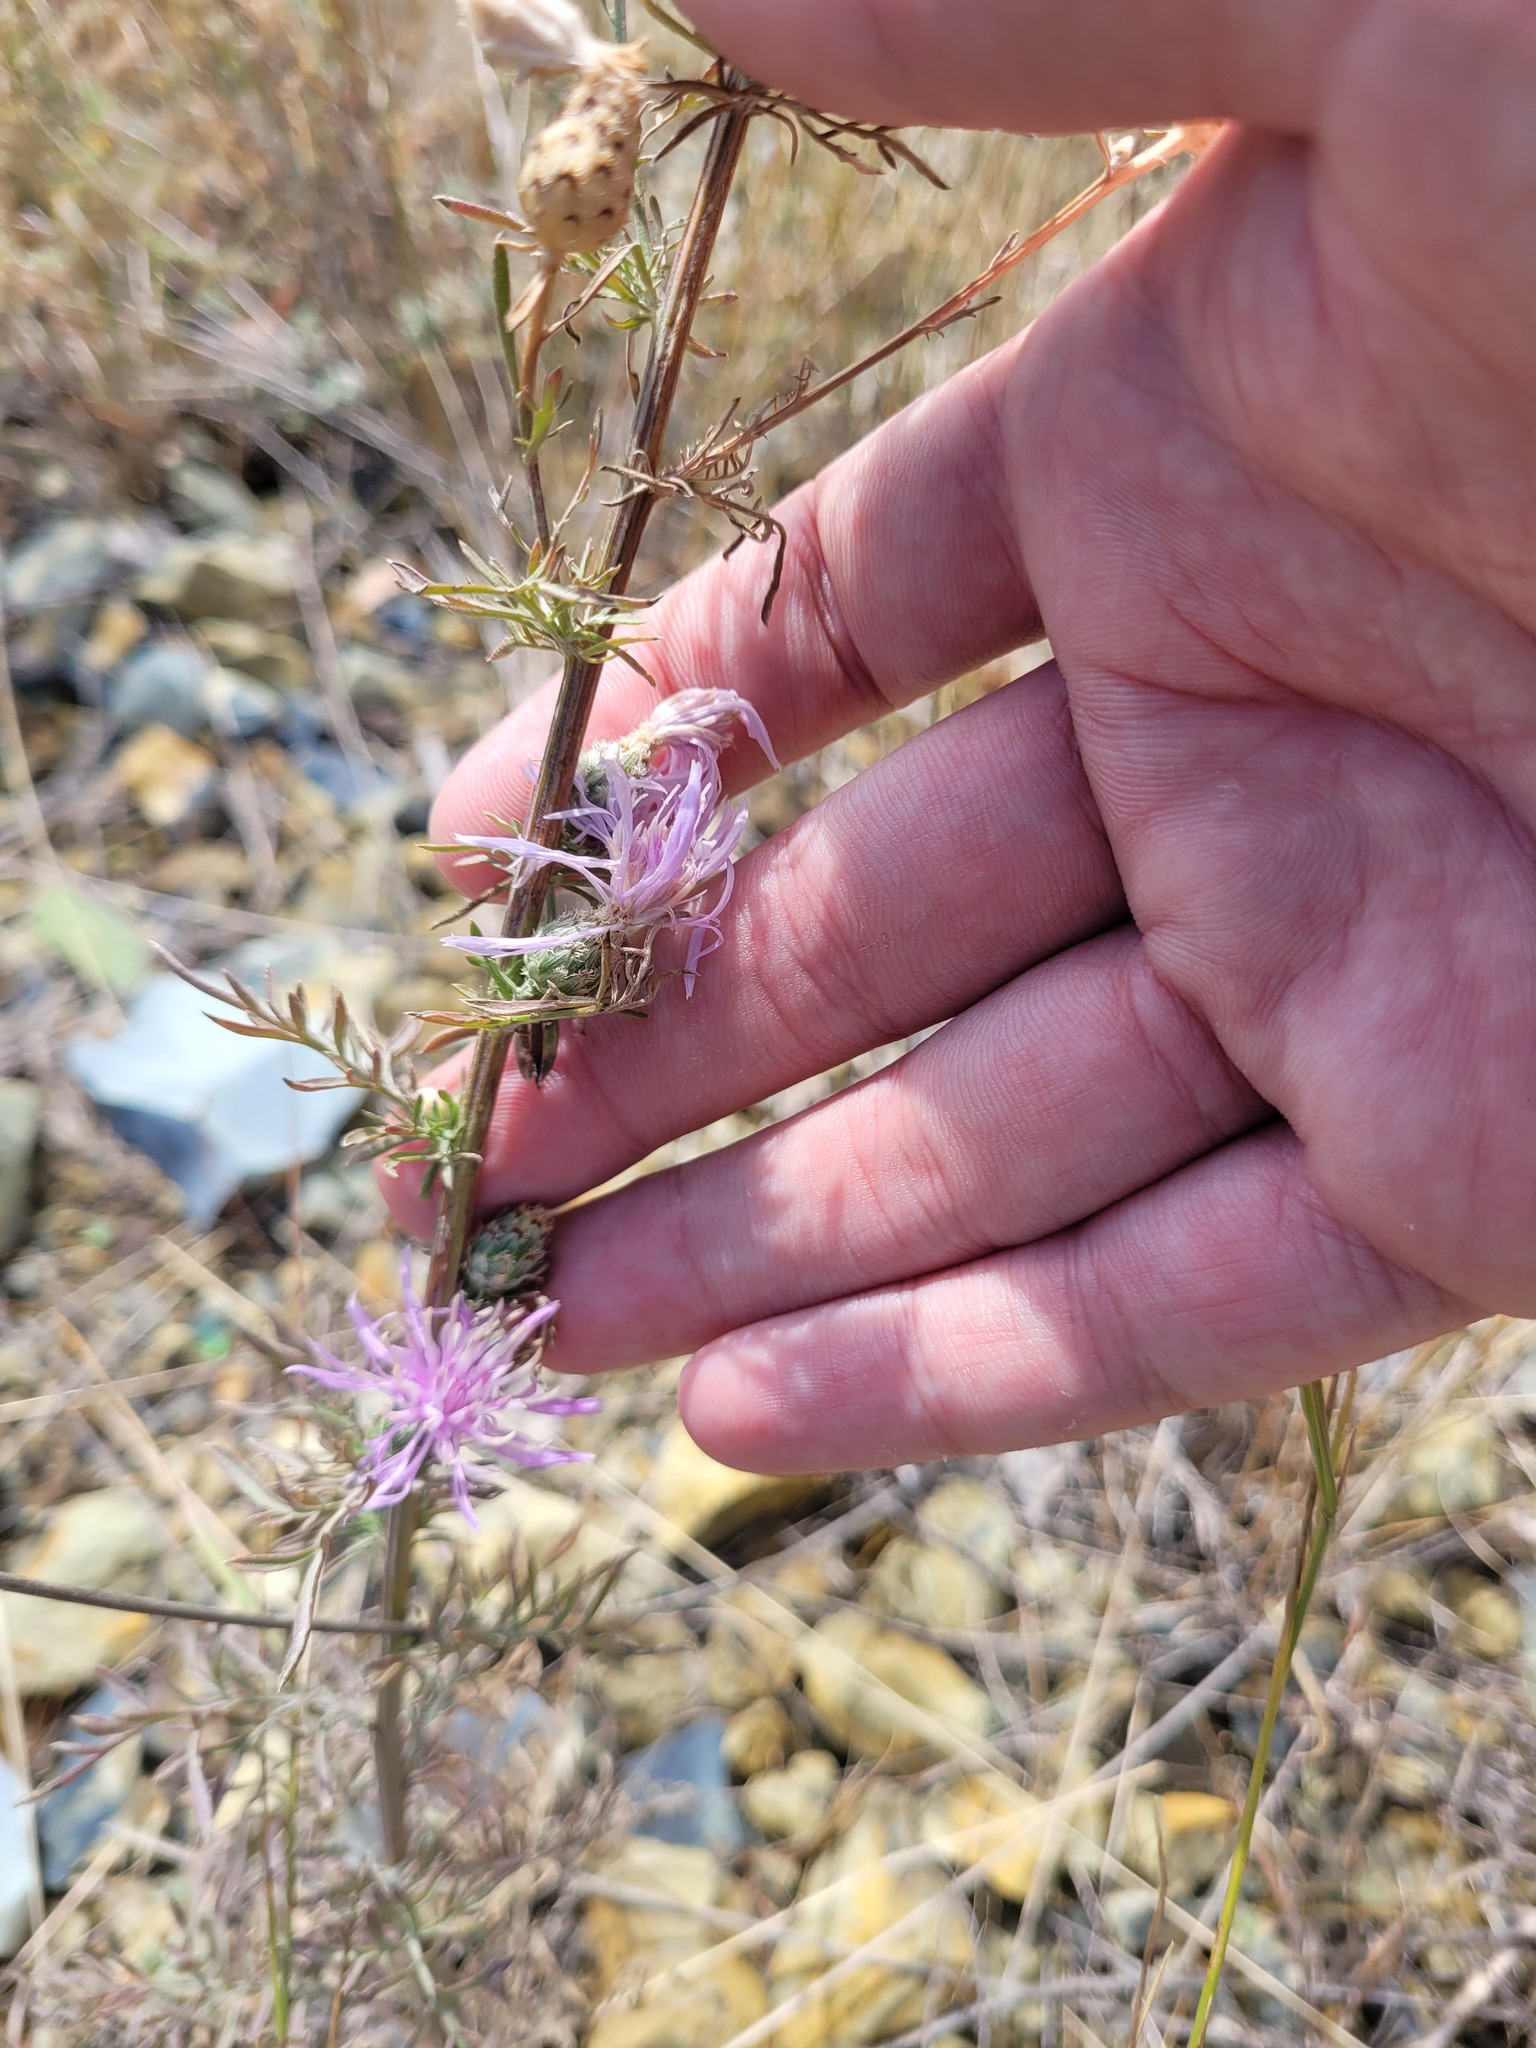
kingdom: Plantae
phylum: Tracheophyta
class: Magnoliopsida
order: Asterales
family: Asteraceae
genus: Centaurea
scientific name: Centaurea australis
